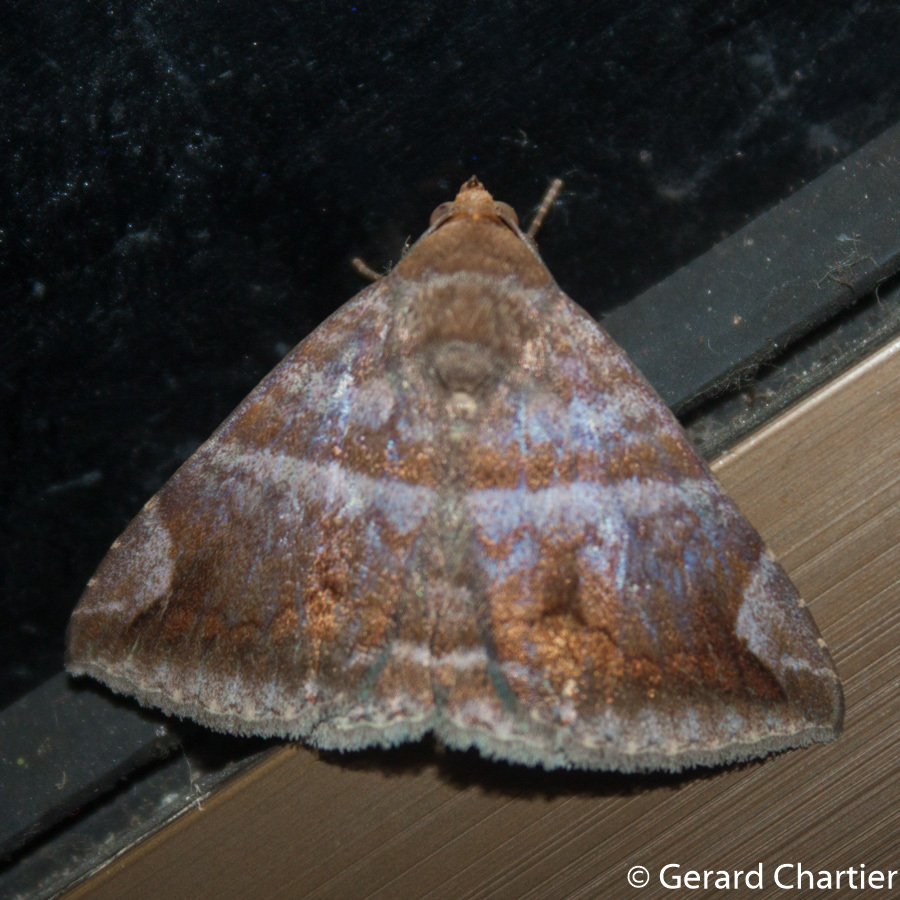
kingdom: Animalia
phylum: Arthropoda
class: Insecta
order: Lepidoptera
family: Erebidae
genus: Buzara
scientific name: Buzara onelia
